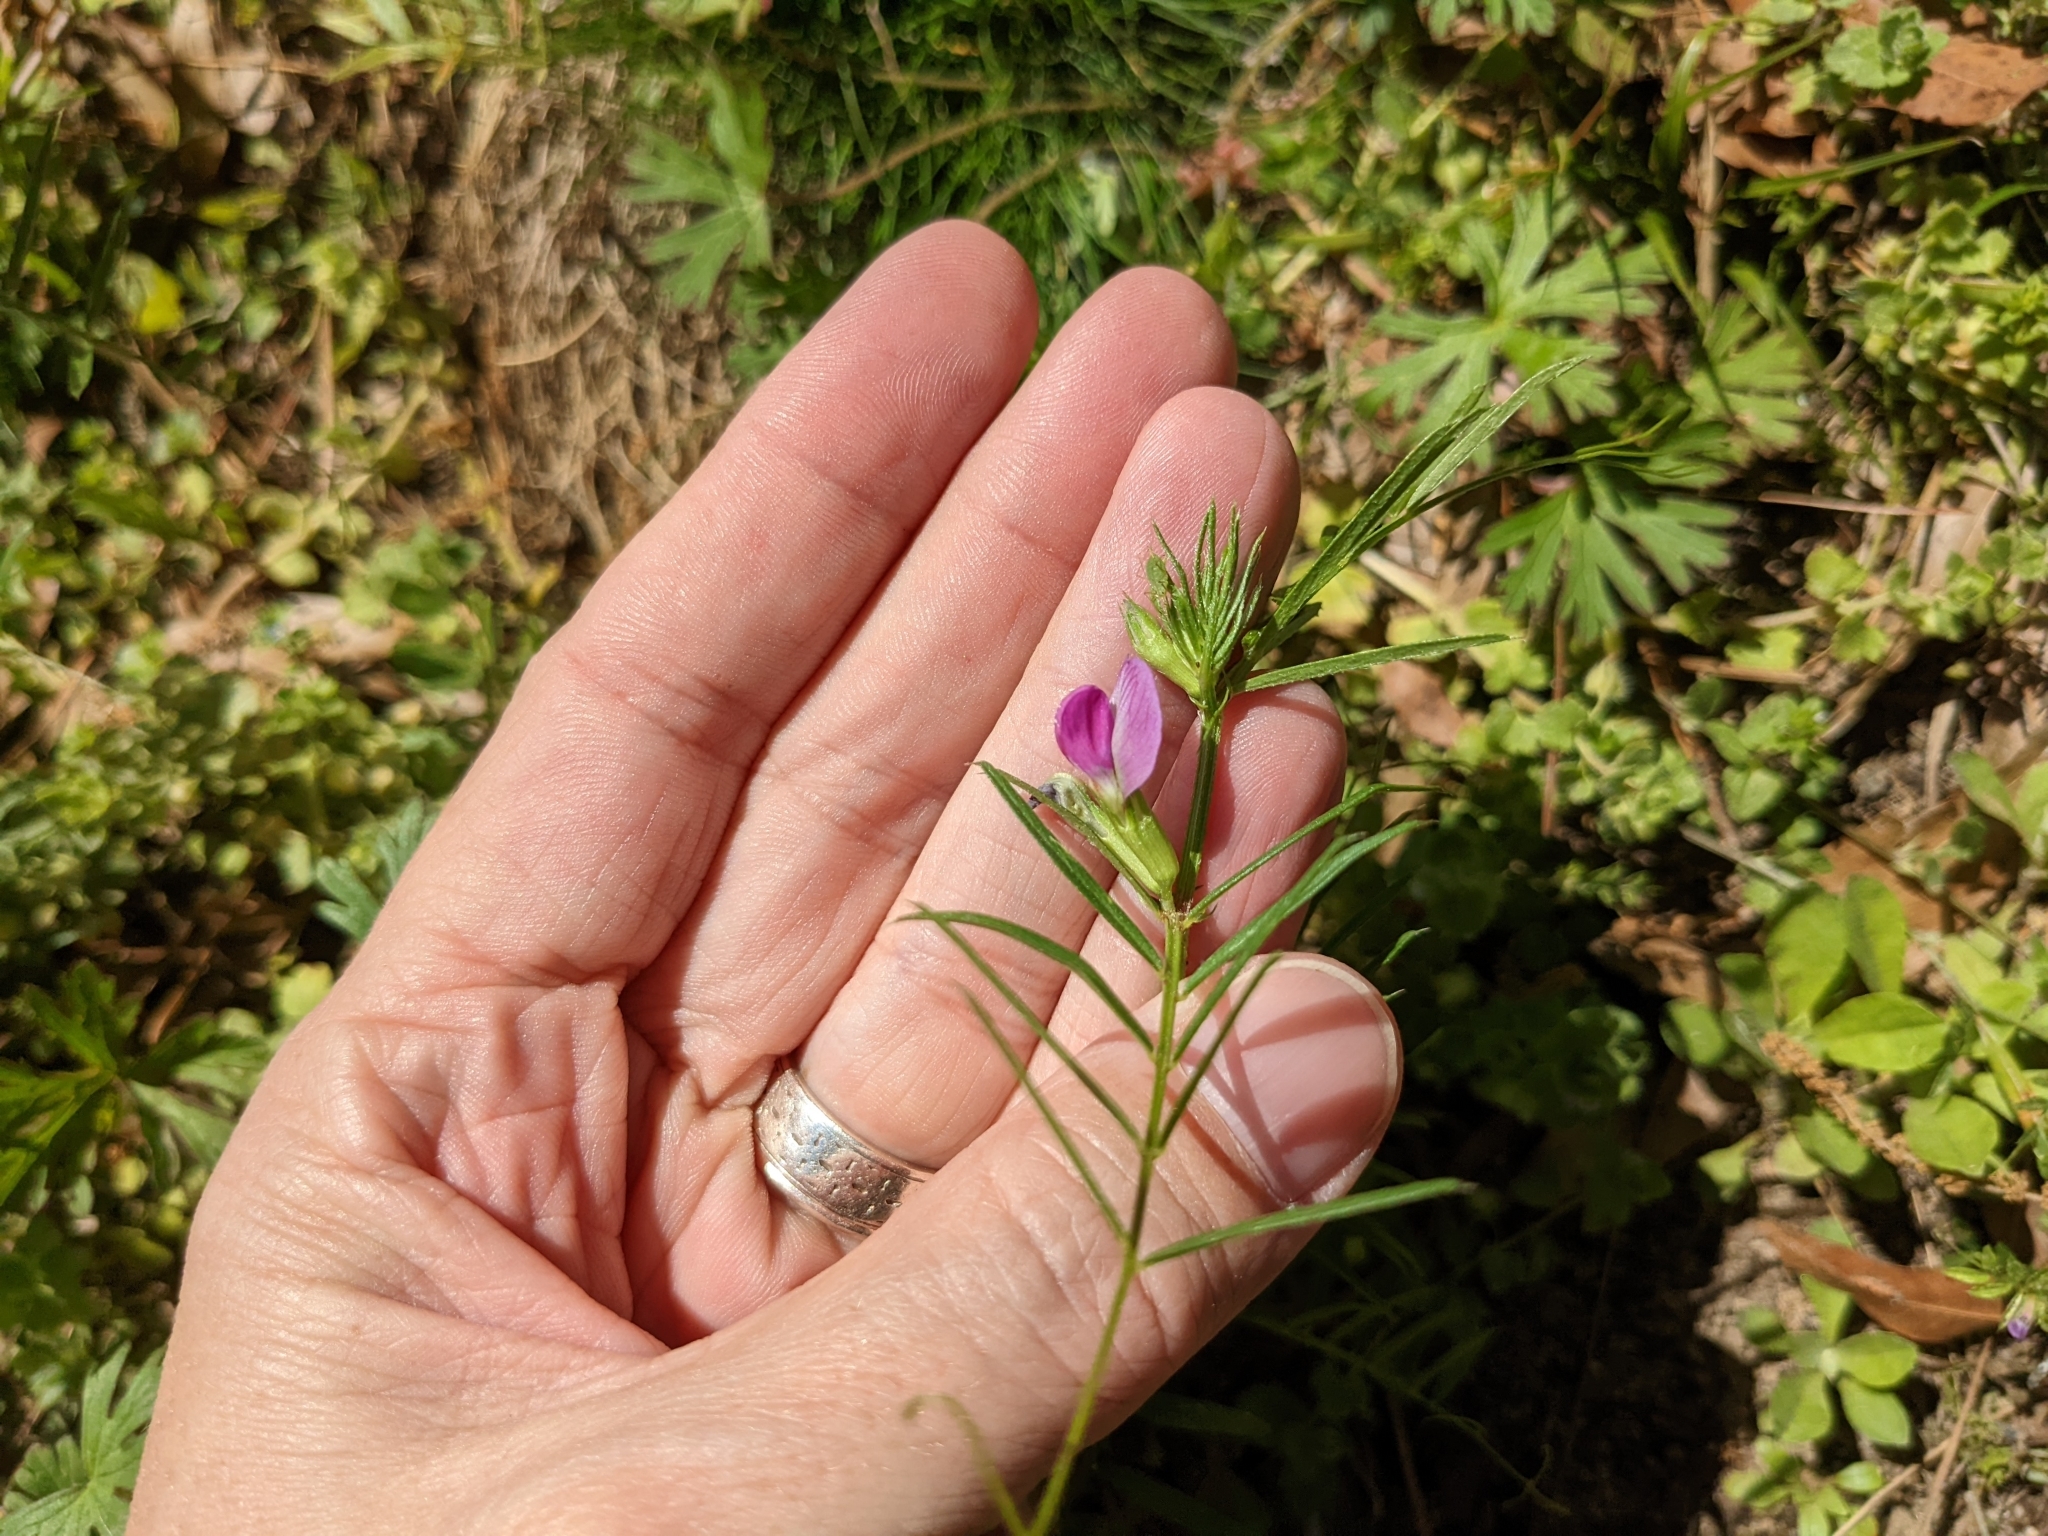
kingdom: Plantae
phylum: Tracheophyta
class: Magnoliopsida
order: Fabales
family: Fabaceae
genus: Vicia
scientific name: Vicia sativa
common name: Garden vetch
